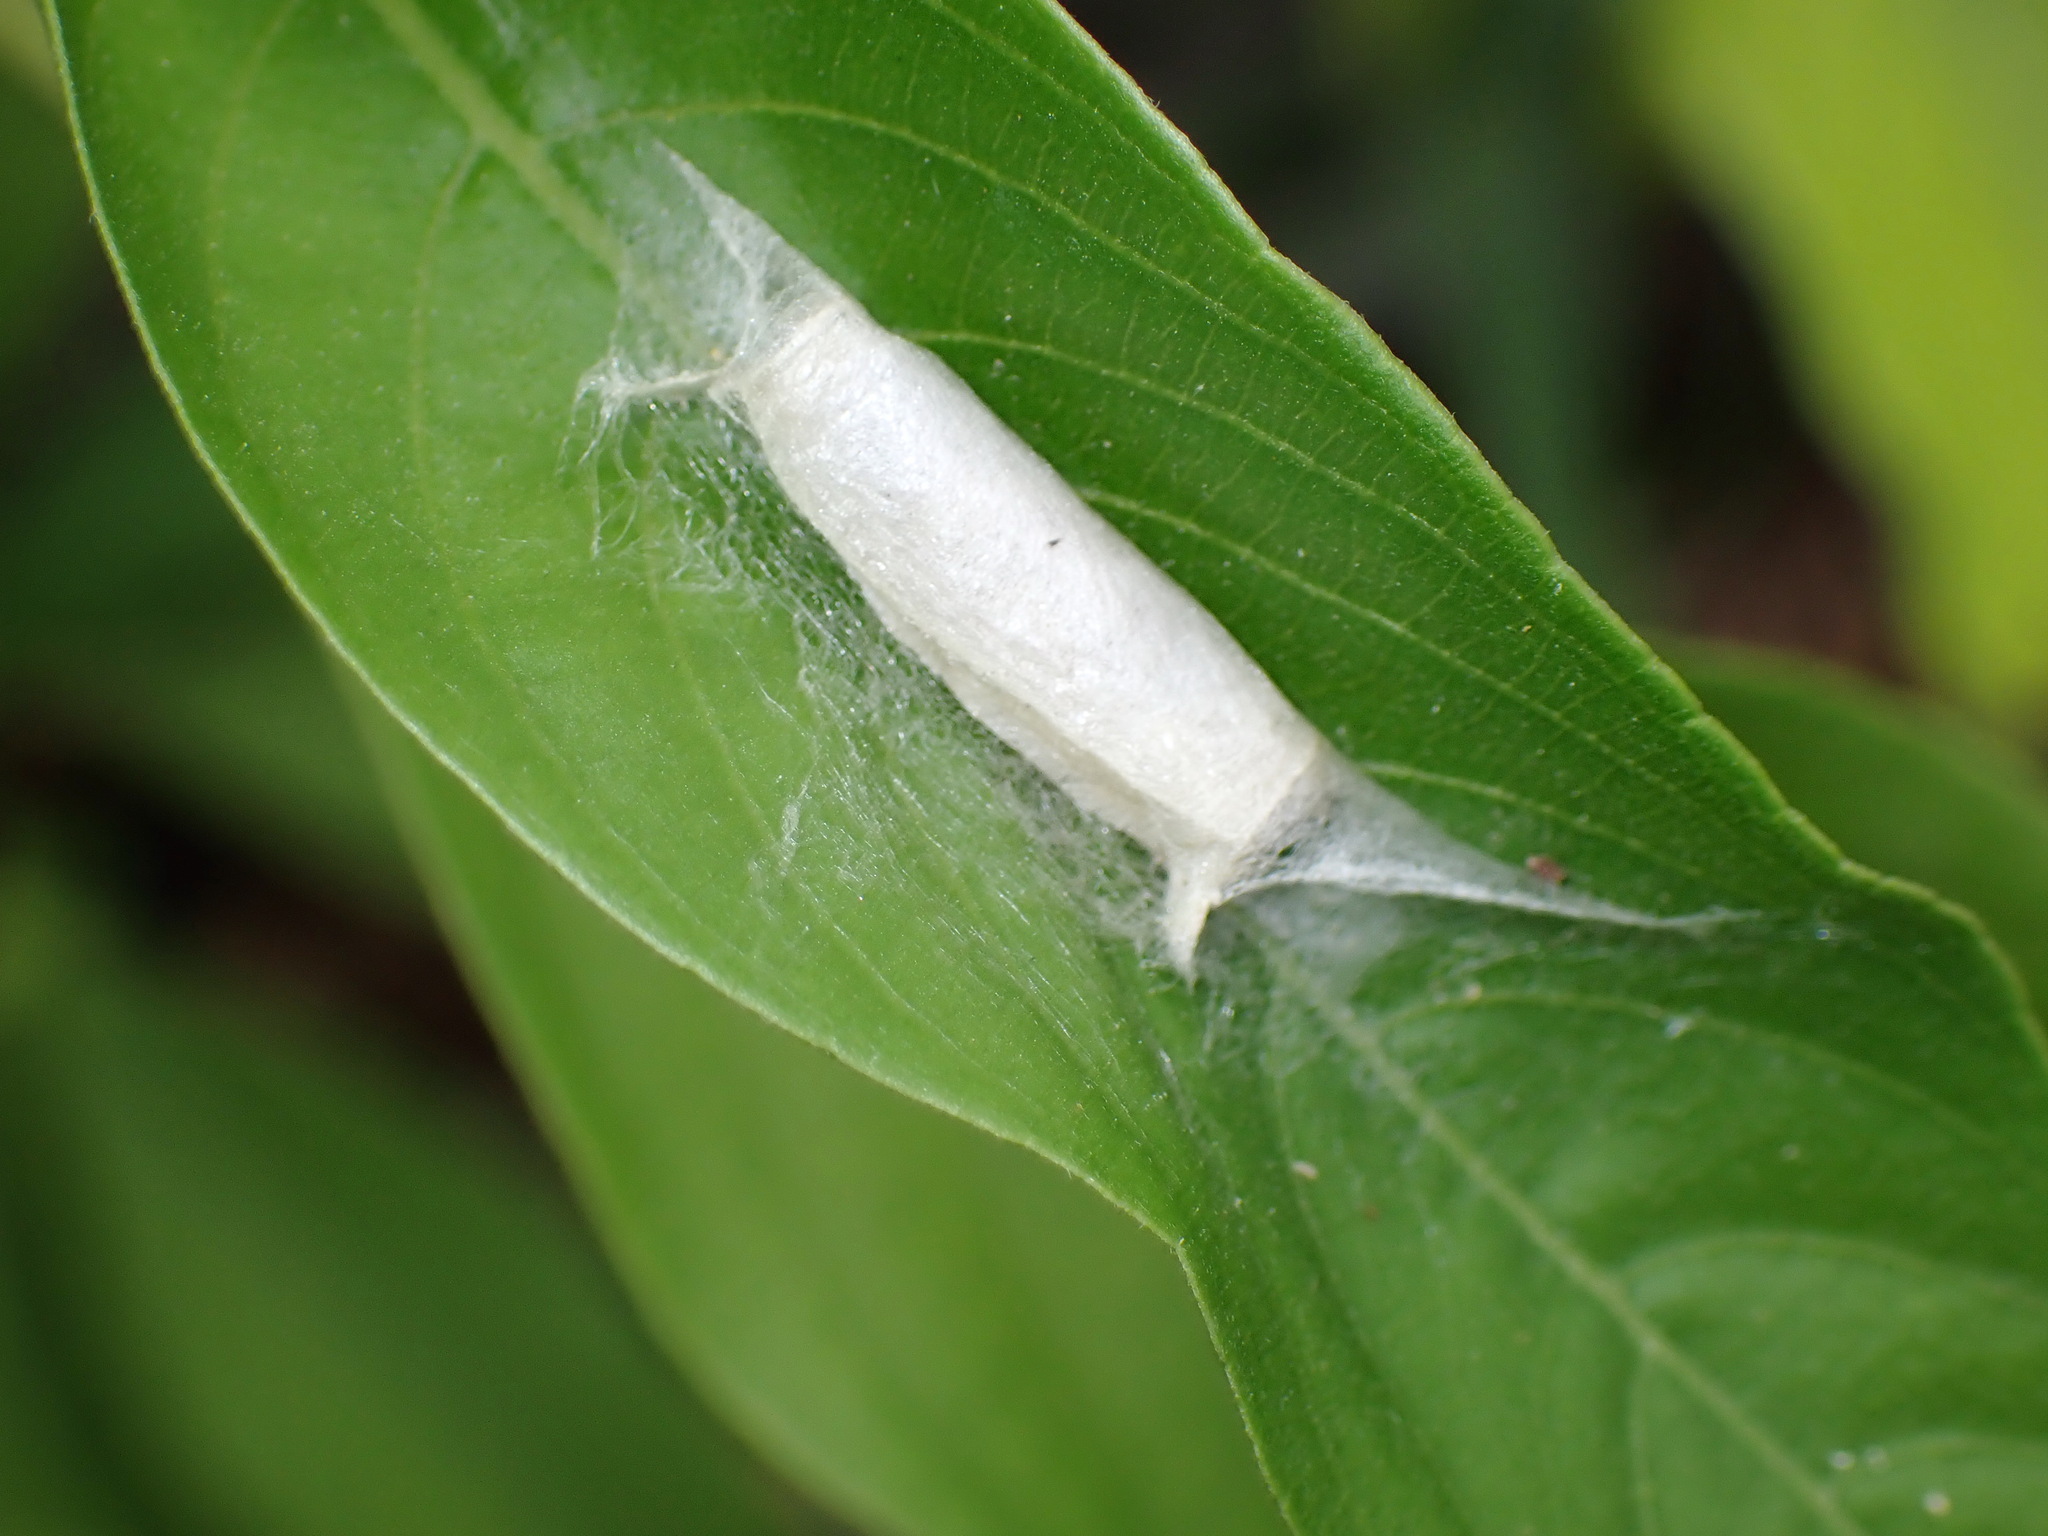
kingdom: Animalia
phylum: Arthropoda
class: Insecta
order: Lepidoptera
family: Hesperiidae
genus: Phocides
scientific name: Phocides lilea
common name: Guava skipper
